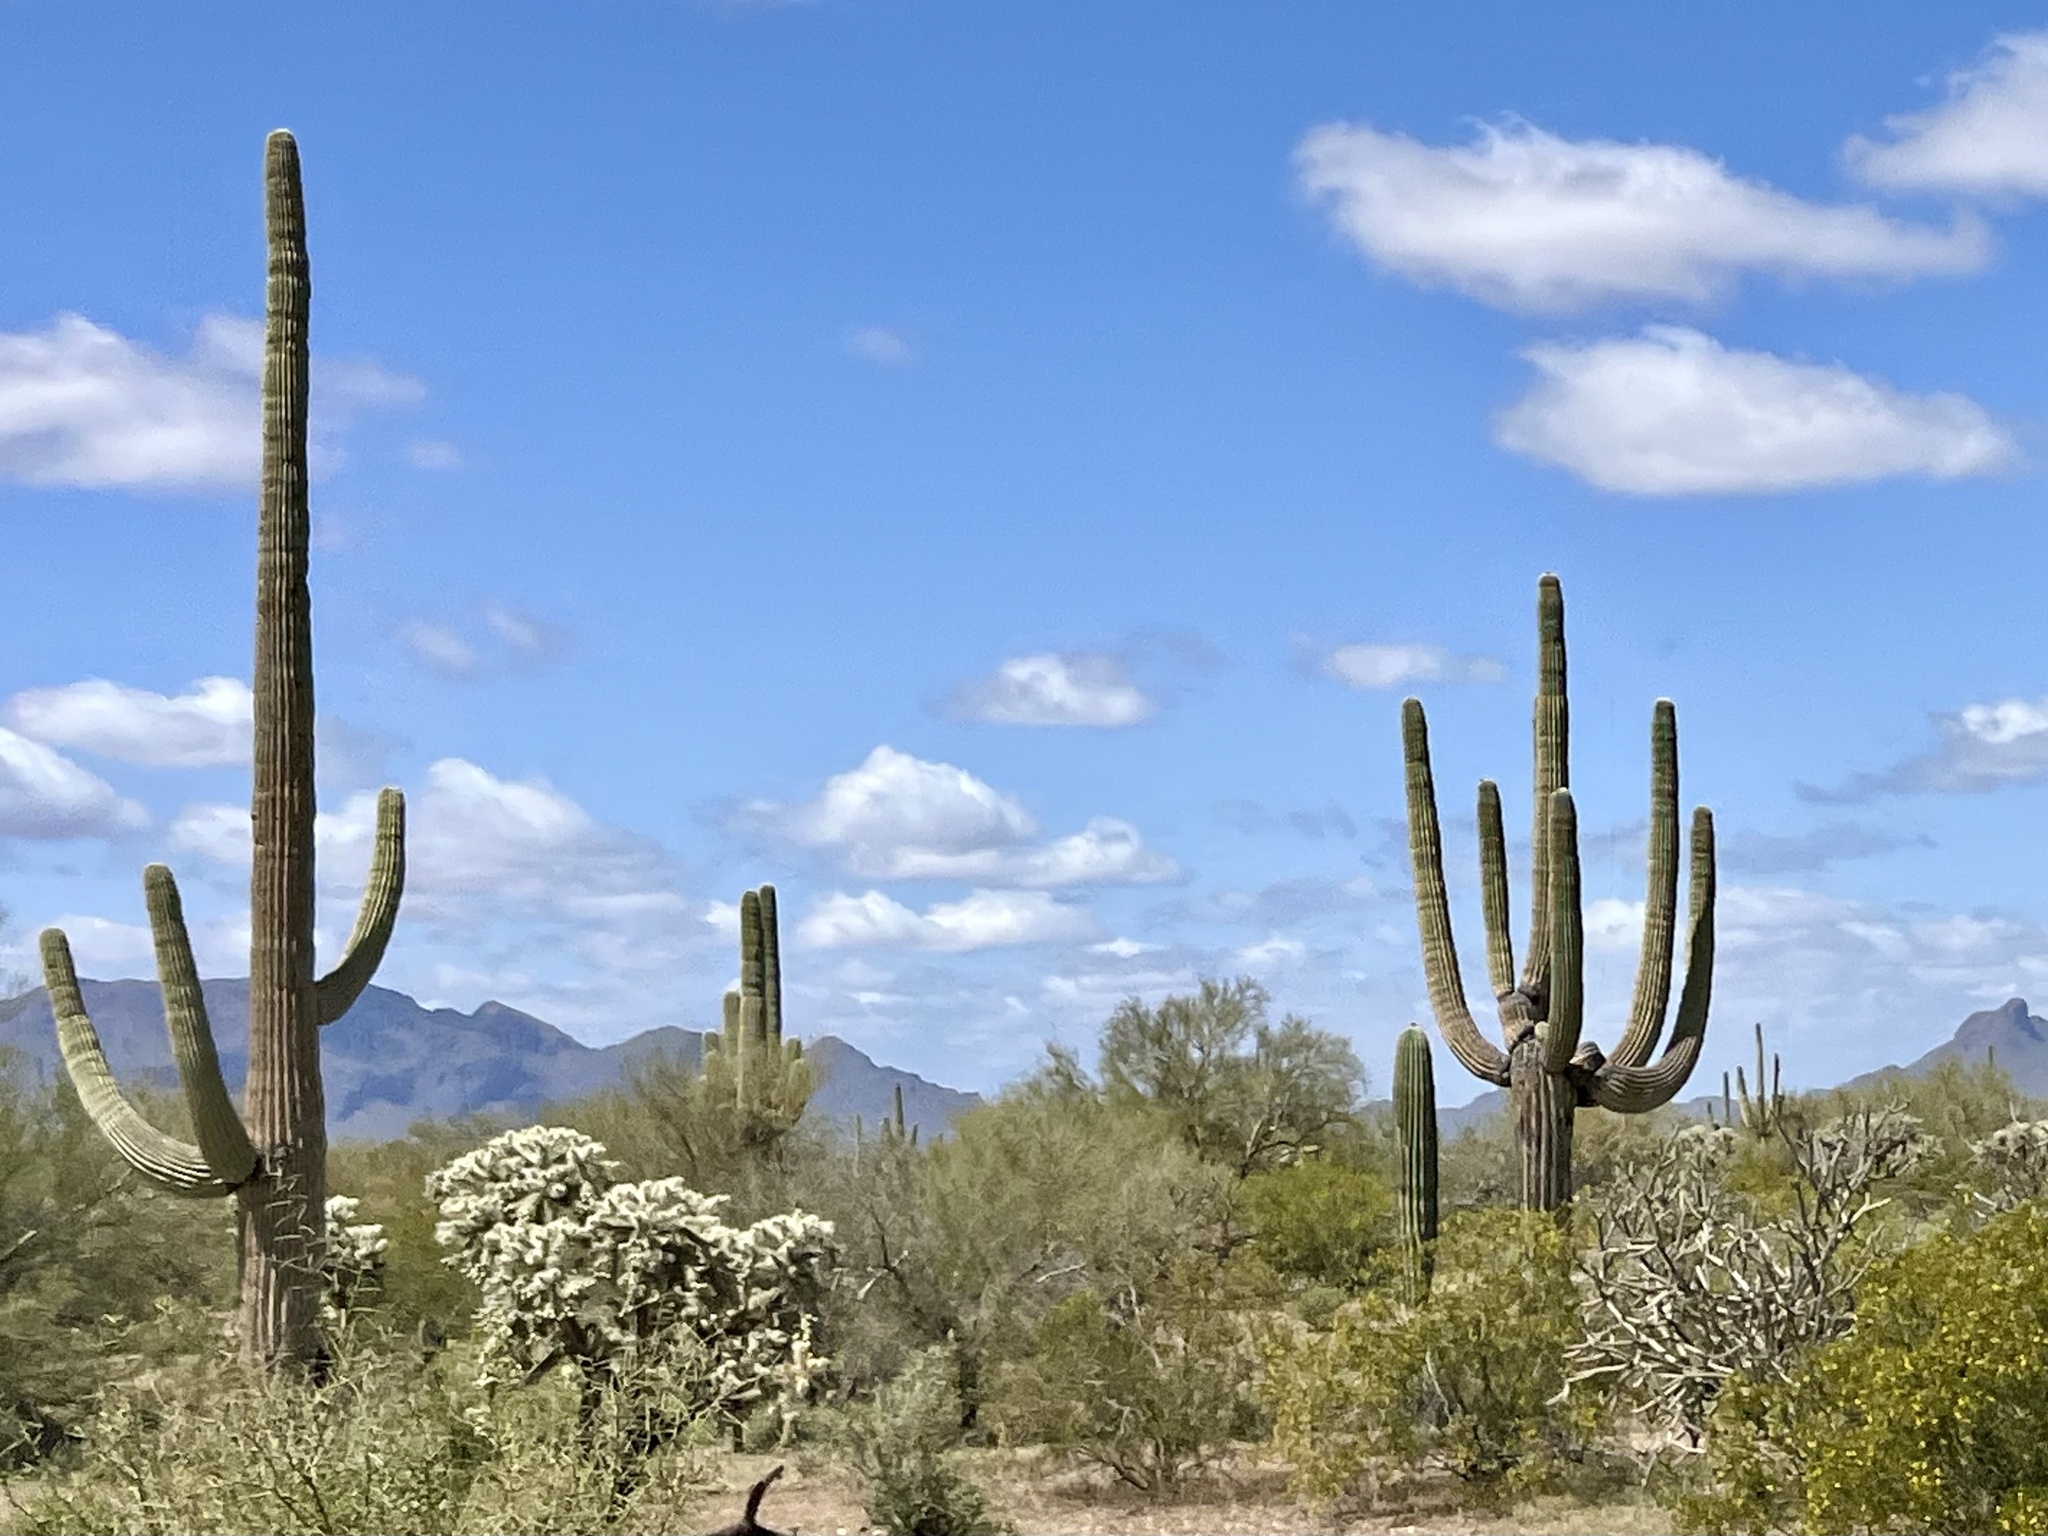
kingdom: Plantae
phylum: Tracheophyta
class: Magnoliopsida
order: Caryophyllales
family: Cactaceae
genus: Carnegiea
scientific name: Carnegiea gigantea
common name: Saguaro
